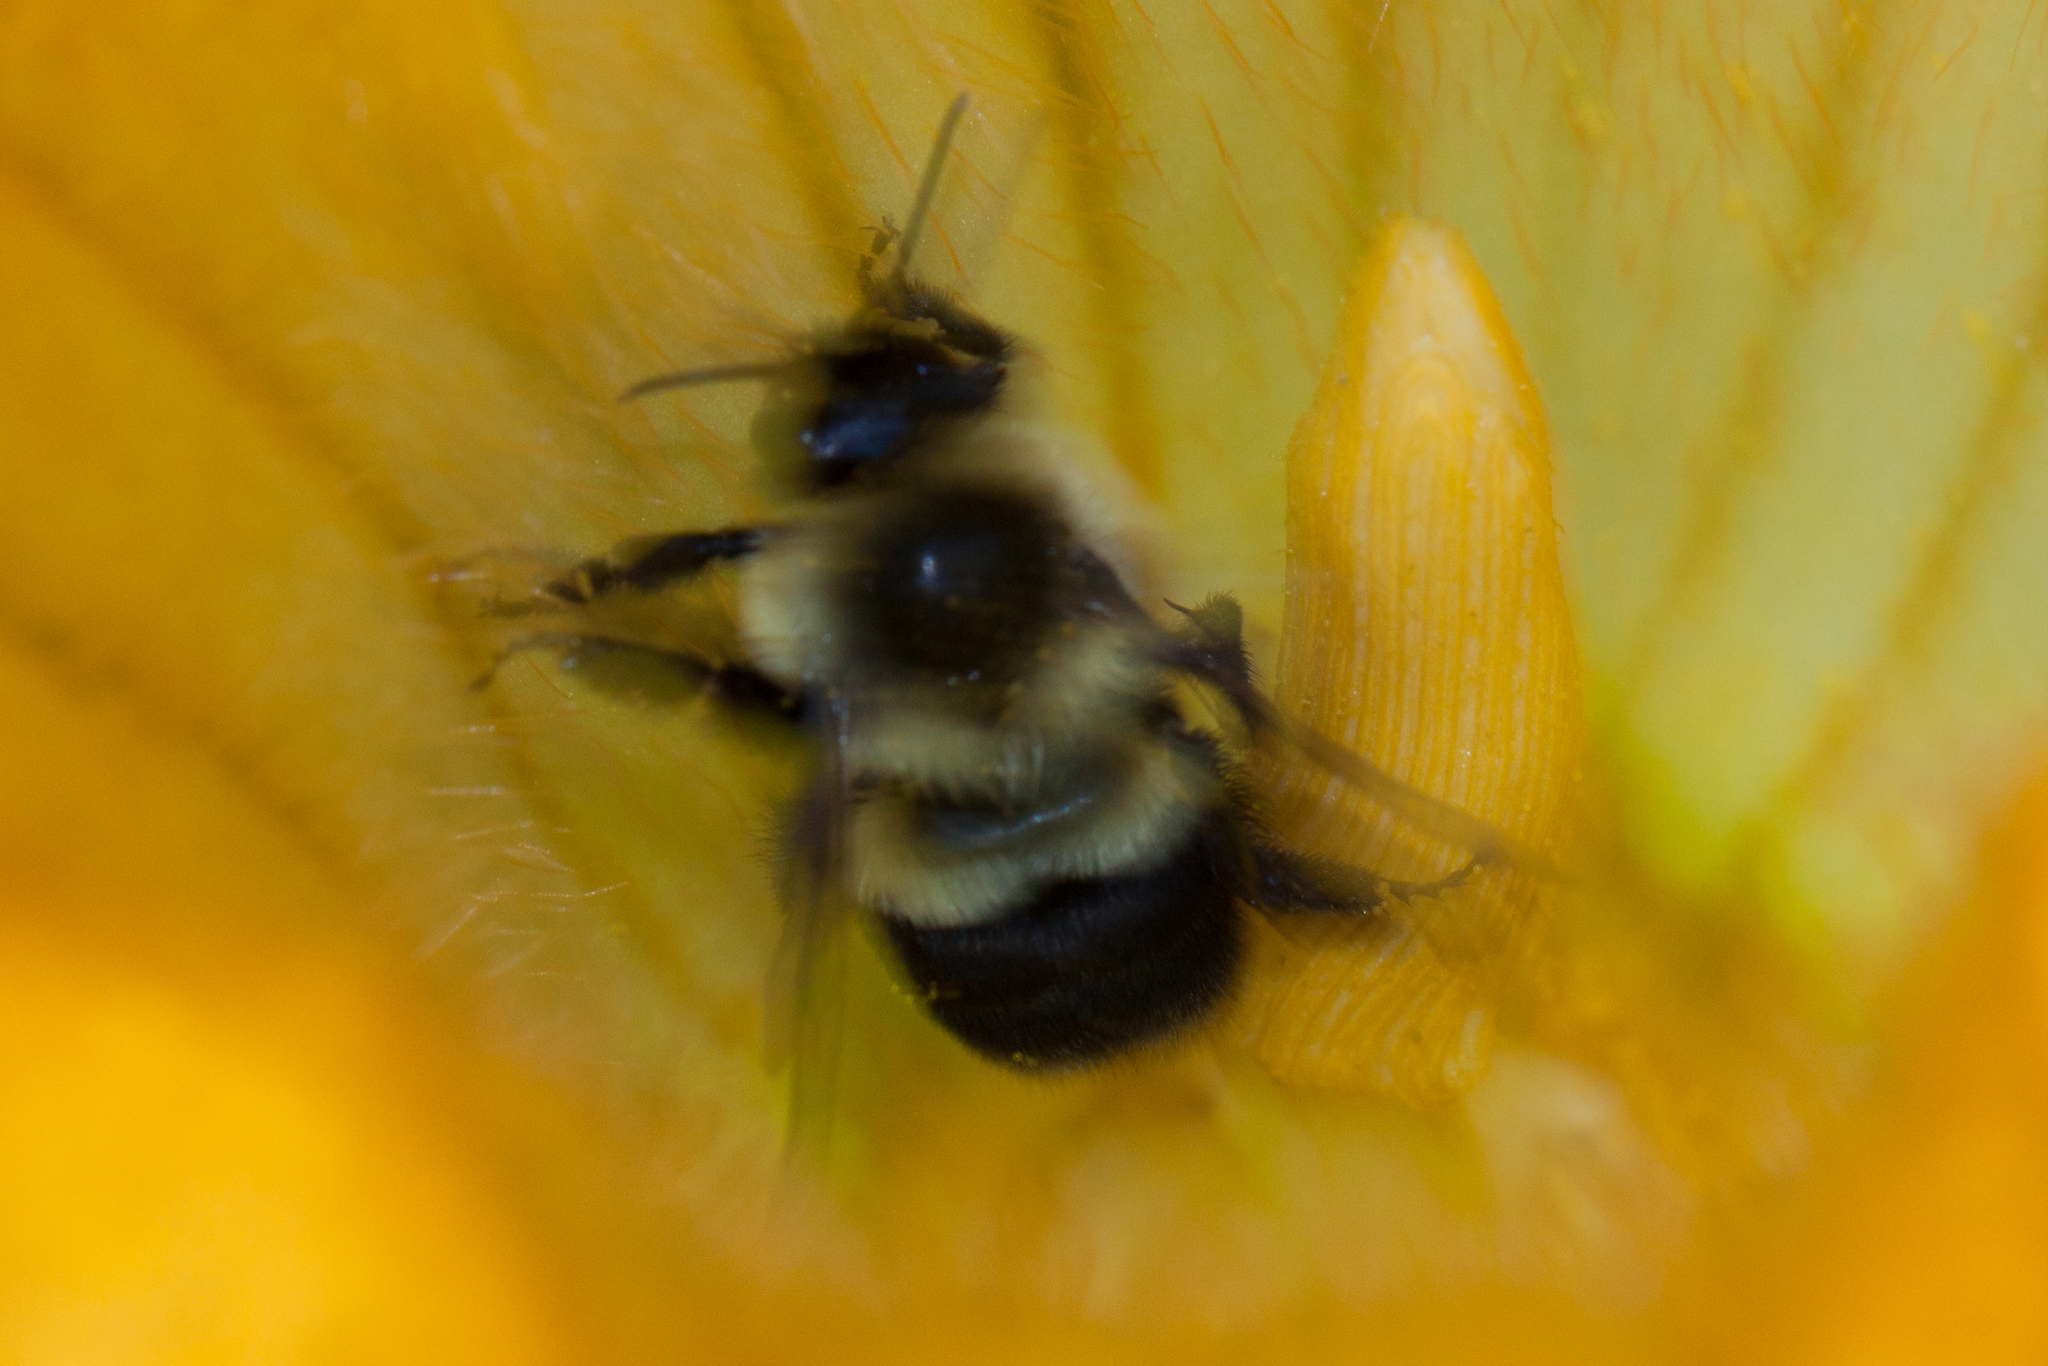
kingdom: Animalia
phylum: Arthropoda
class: Insecta
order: Hymenoptera
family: Apidae
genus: Bombus
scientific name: Bombus impatiens
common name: Common eastern bumble bee
